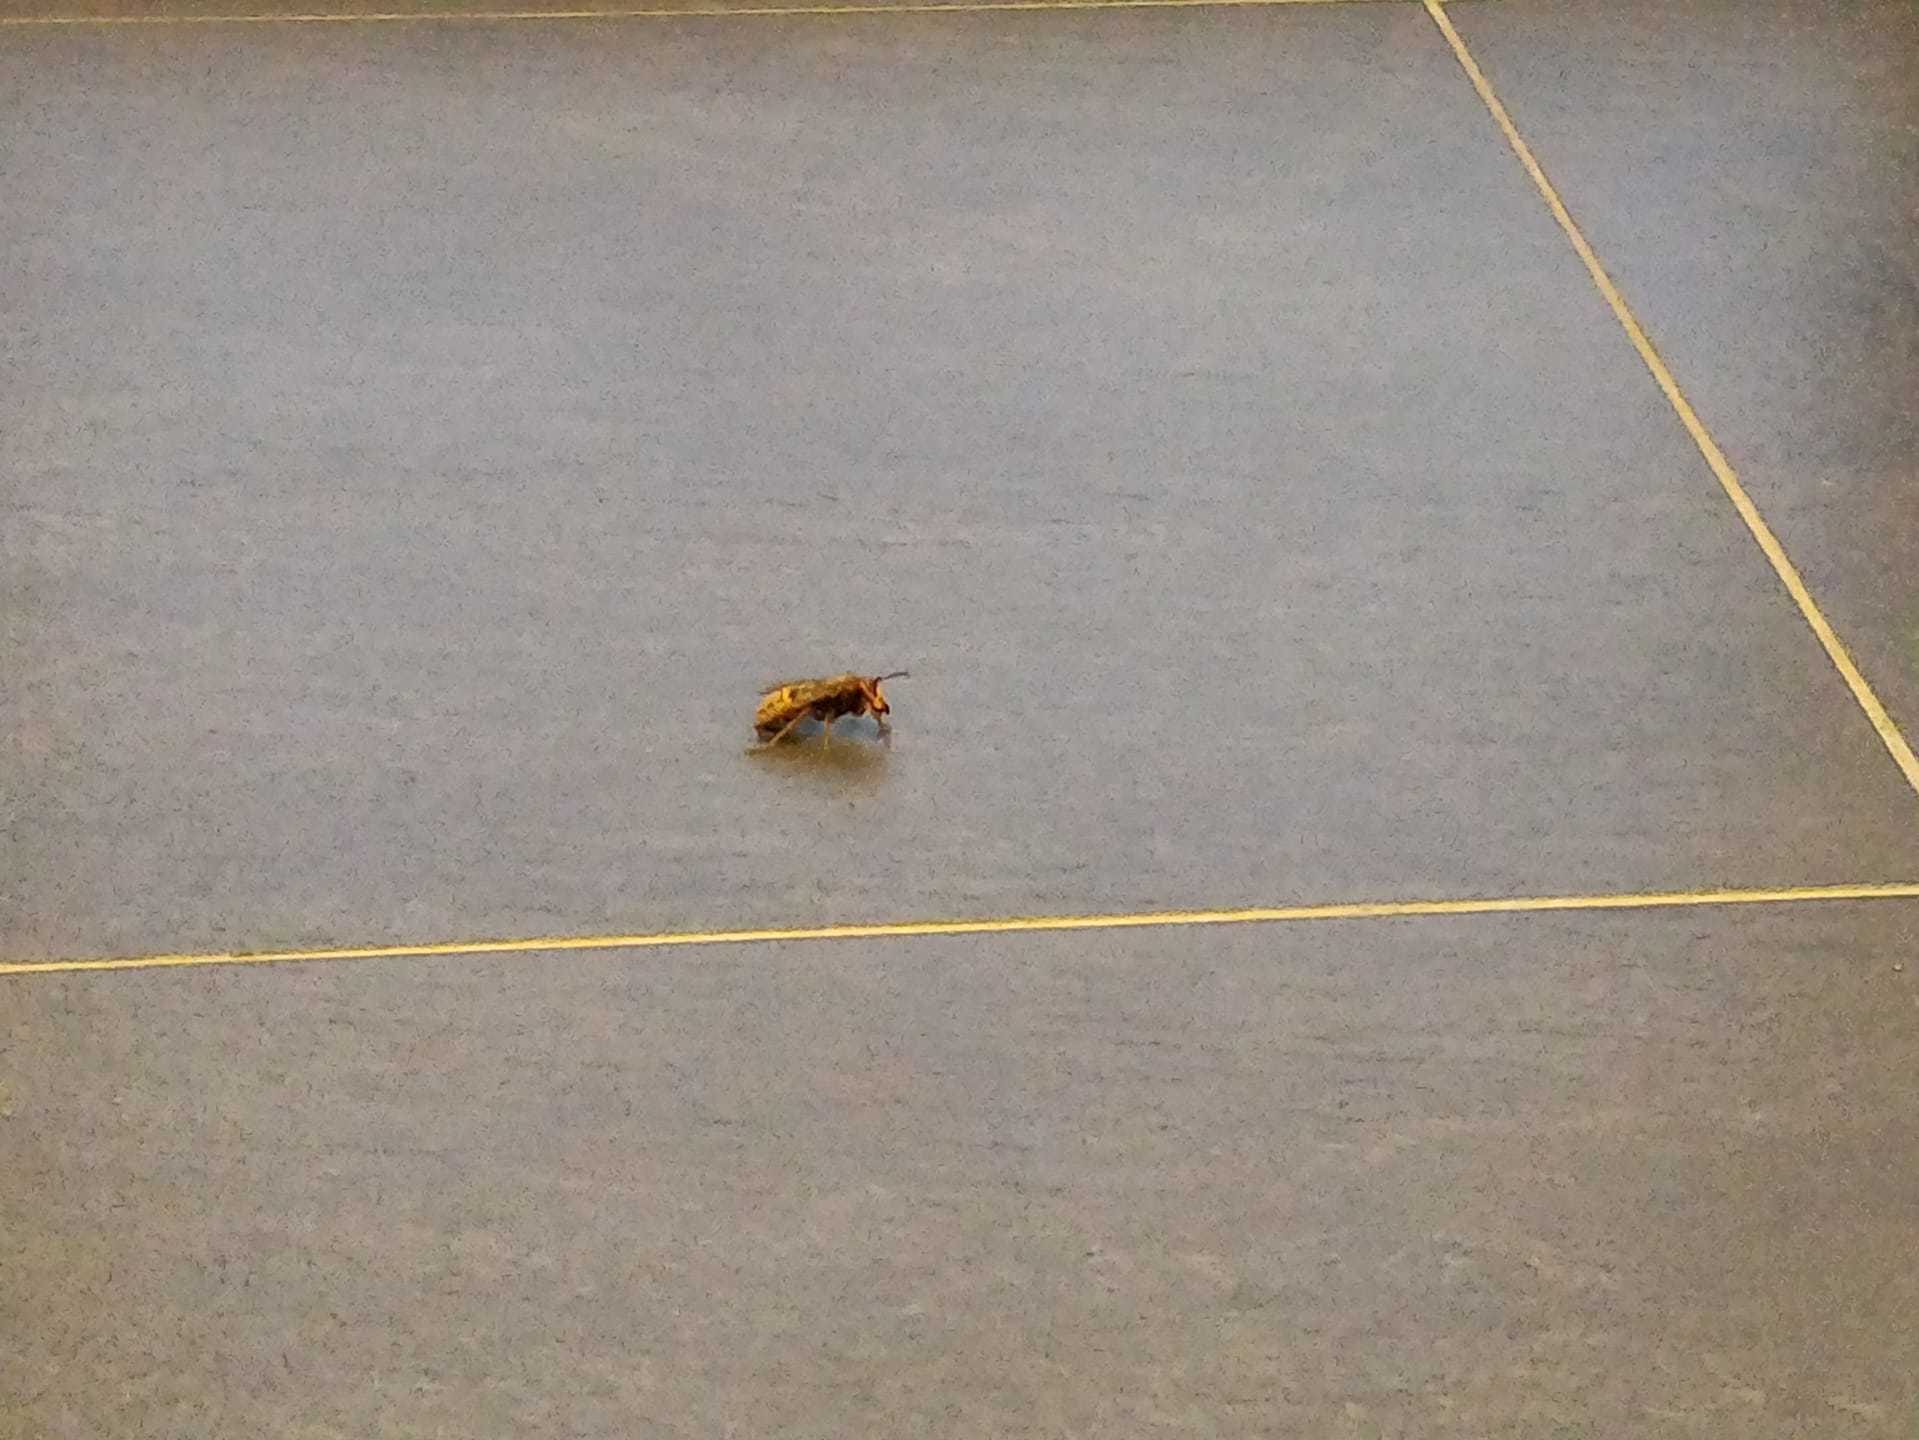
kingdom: Animalia
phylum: Arthropoda
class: Insecta
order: Hymenoptera
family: Vespidae
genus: Vespa
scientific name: Vespa crabro
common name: Hornet
